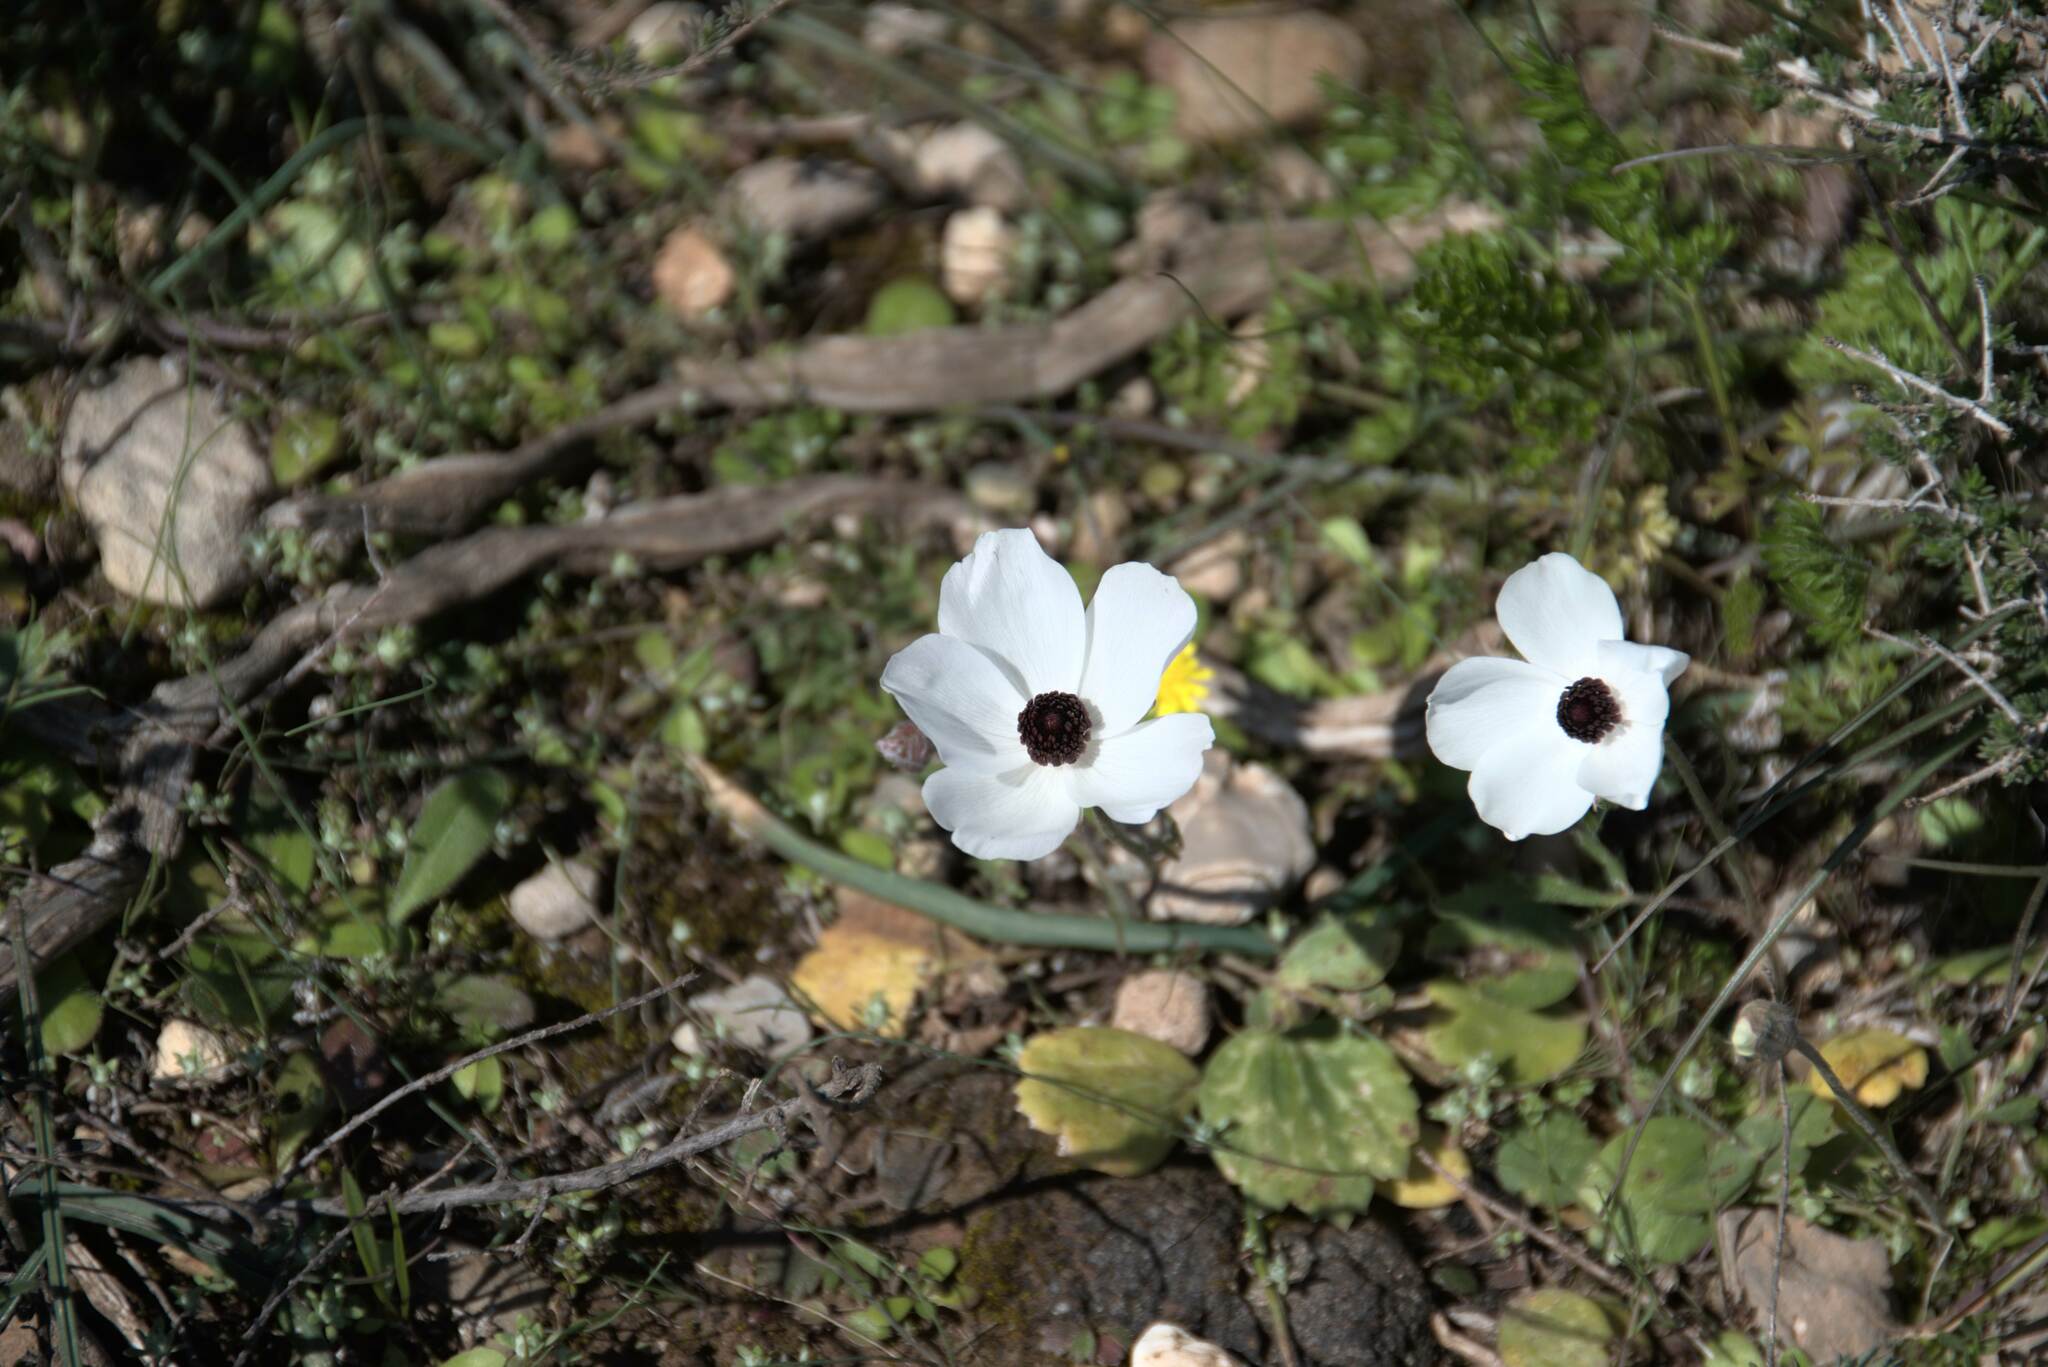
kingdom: Plantae
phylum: Tracheophyta
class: Magnoliopsida
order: Ranunculales
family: Ranunculaceae
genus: Ranunculus
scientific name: Ranunculus asiaticus
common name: Persian buttercup
